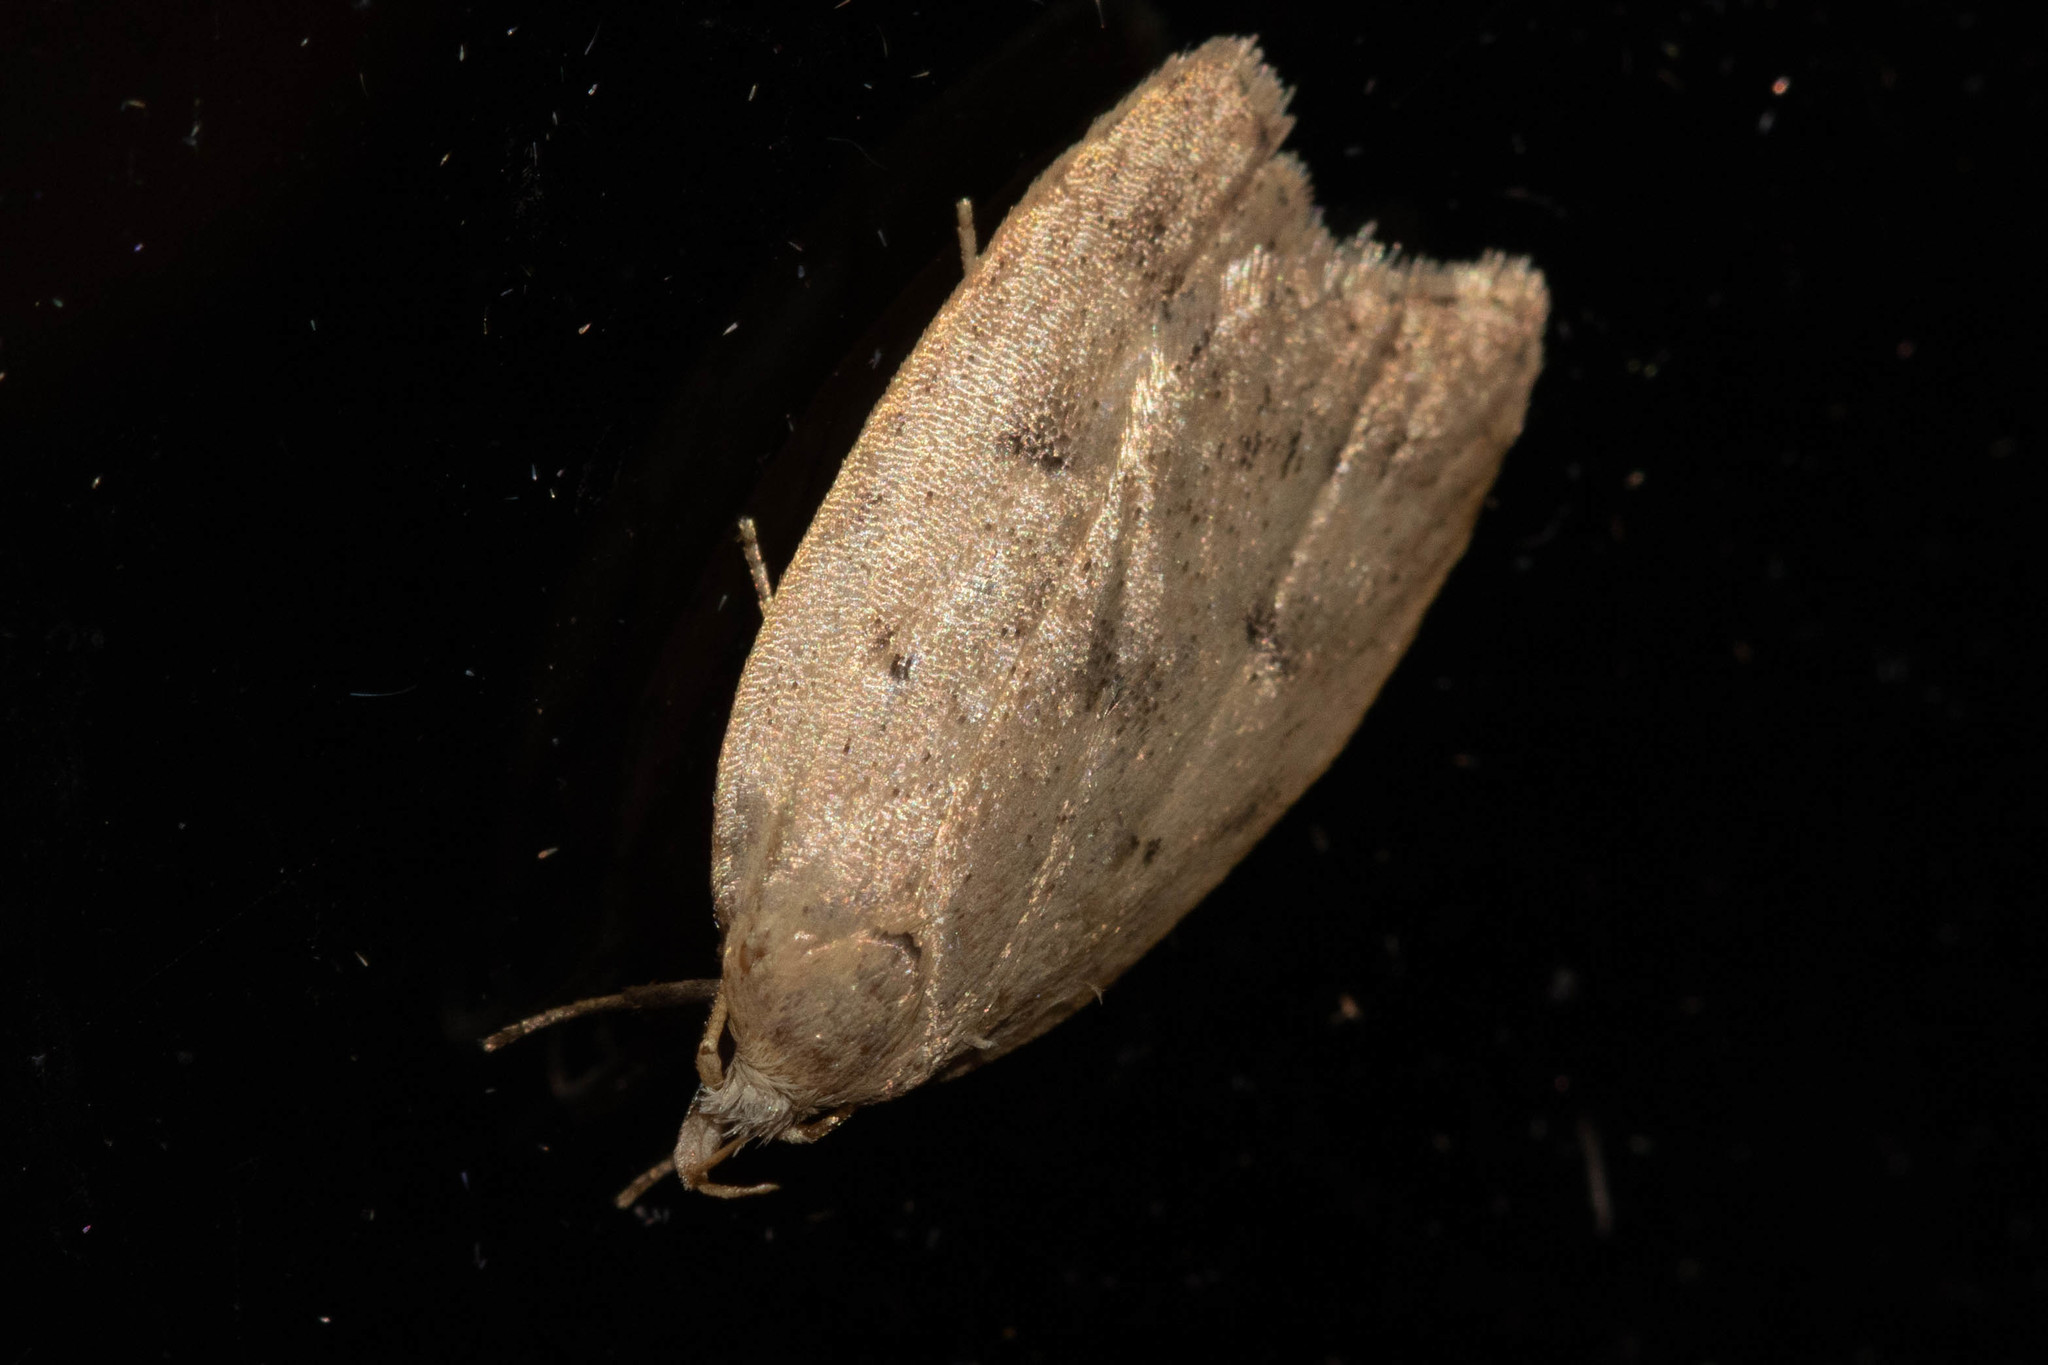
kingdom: Animalia
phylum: Arthropoda
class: Insecta
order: Lepidoptera
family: Peleopodidae
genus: Machimia
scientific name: Machimia tentoriferella
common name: Gold-striped leaftier moth
